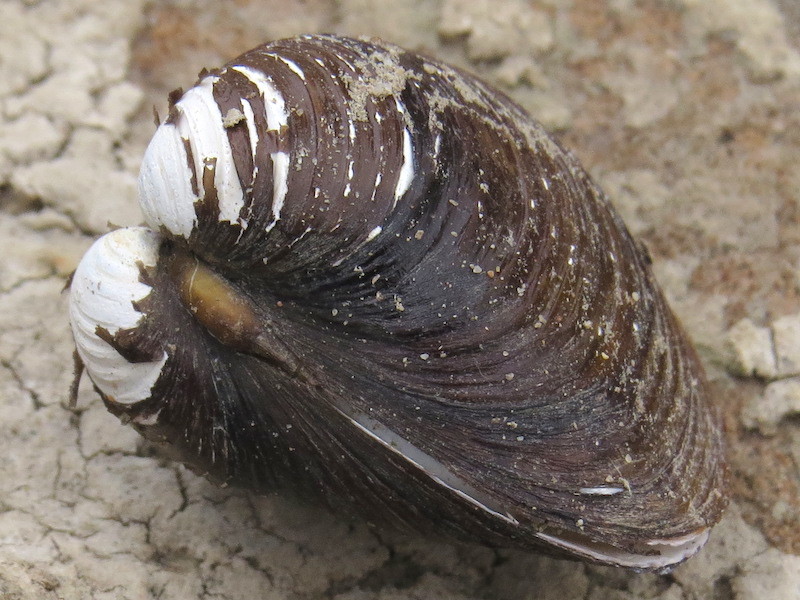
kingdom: Animalia
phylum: Mollusca
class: Bivalvia
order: Venerida
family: Cyrenidae
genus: Corbicula
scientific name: Corbicula fluminea
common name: Asian clam
